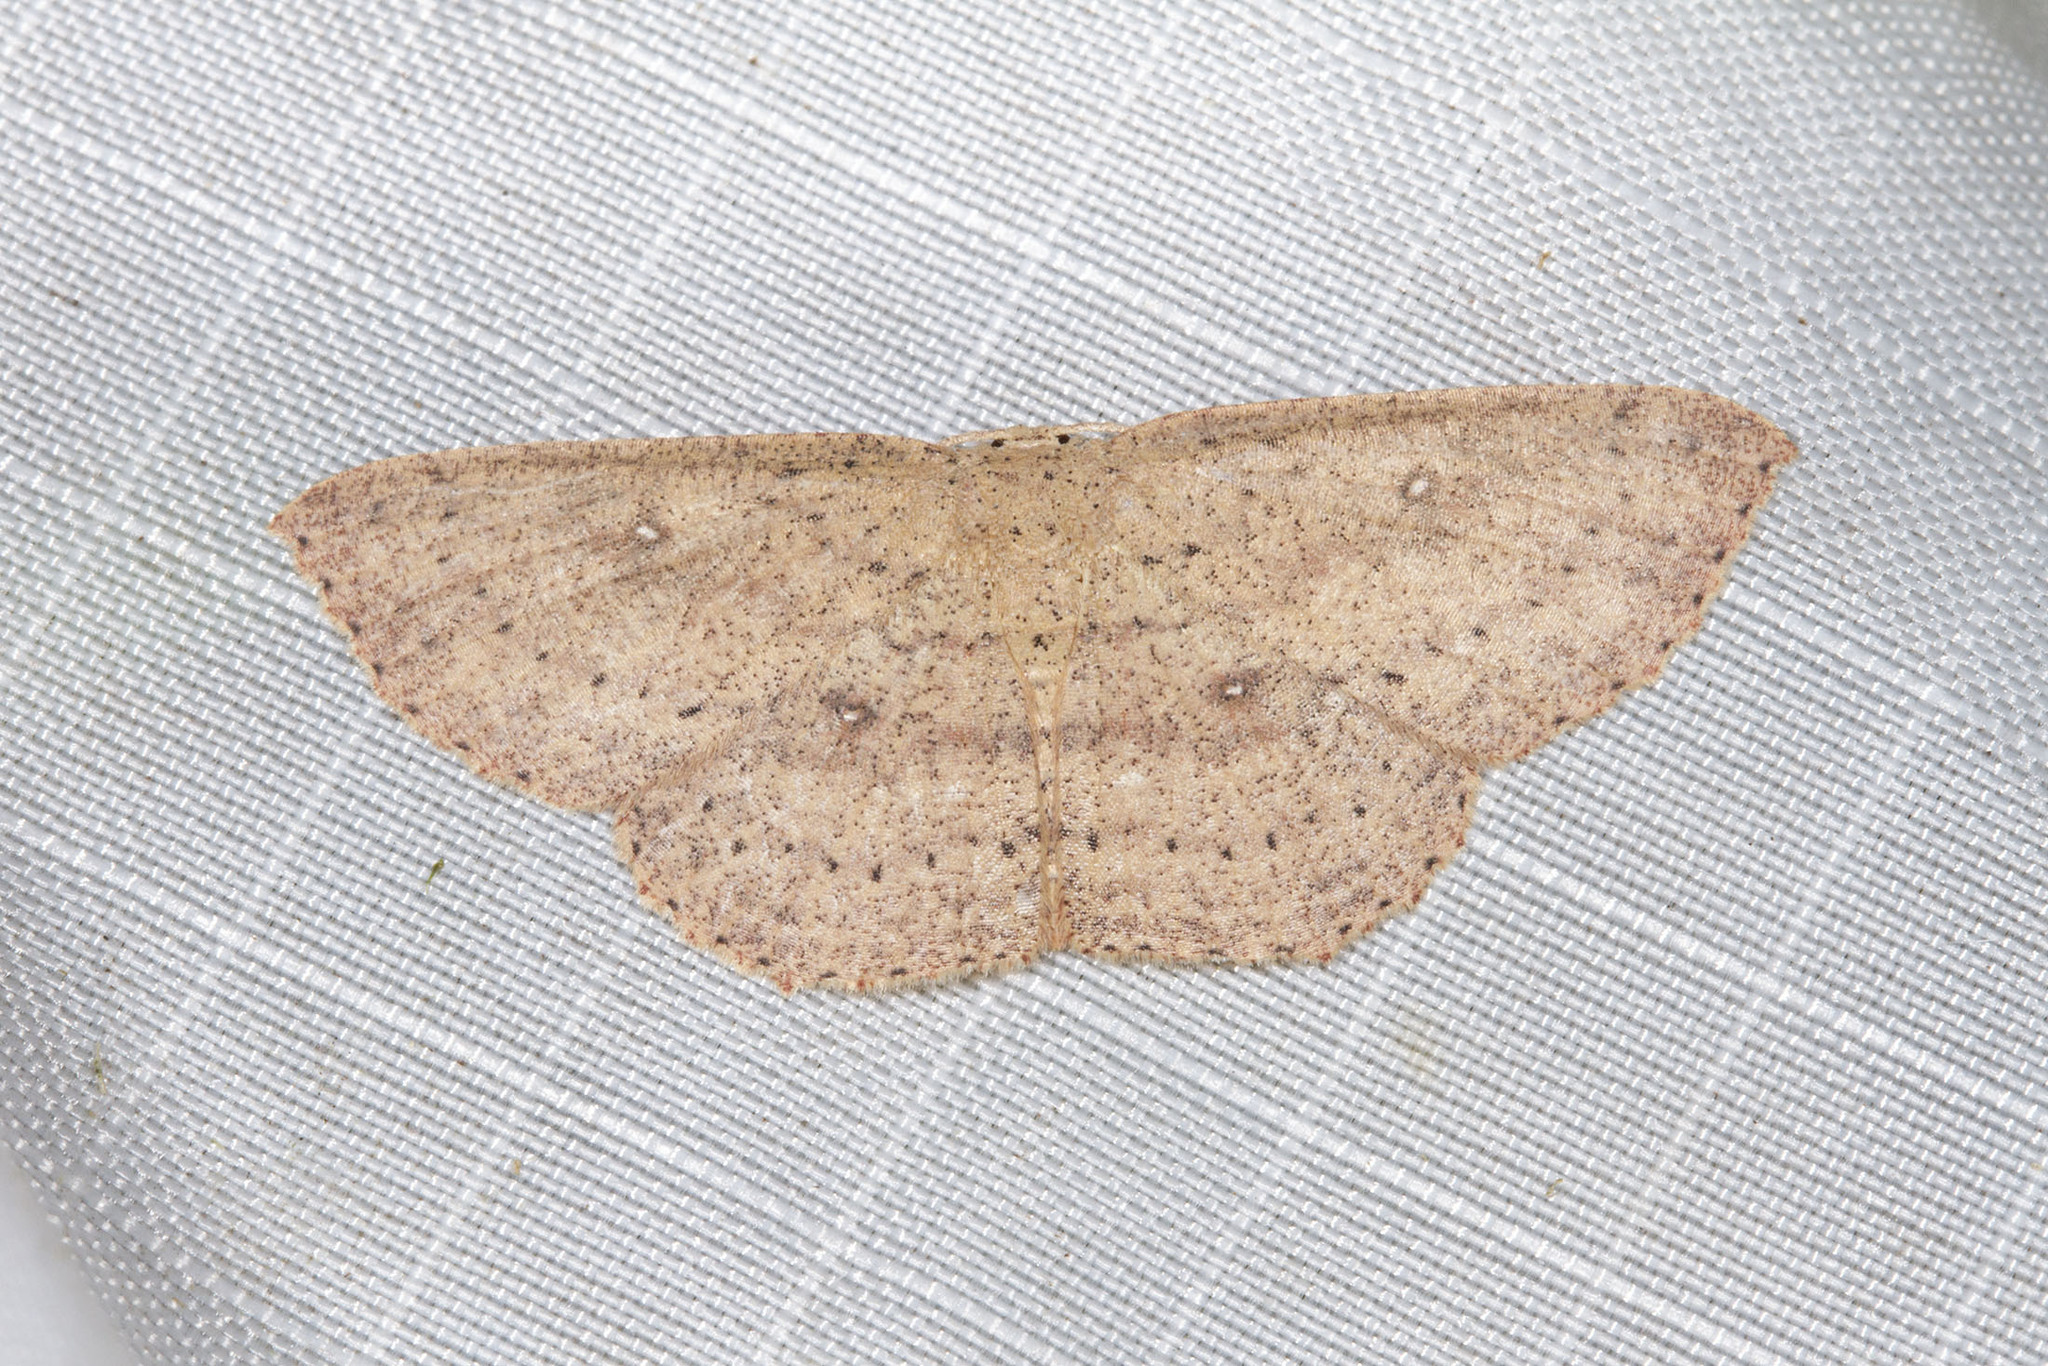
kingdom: Animalia
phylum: Arthropoda
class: Insecta
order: Lepidoptera
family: Geometridae
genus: Cyclophora
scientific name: Cyclophora myrtaria
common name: Waxmyrtle wave moth
